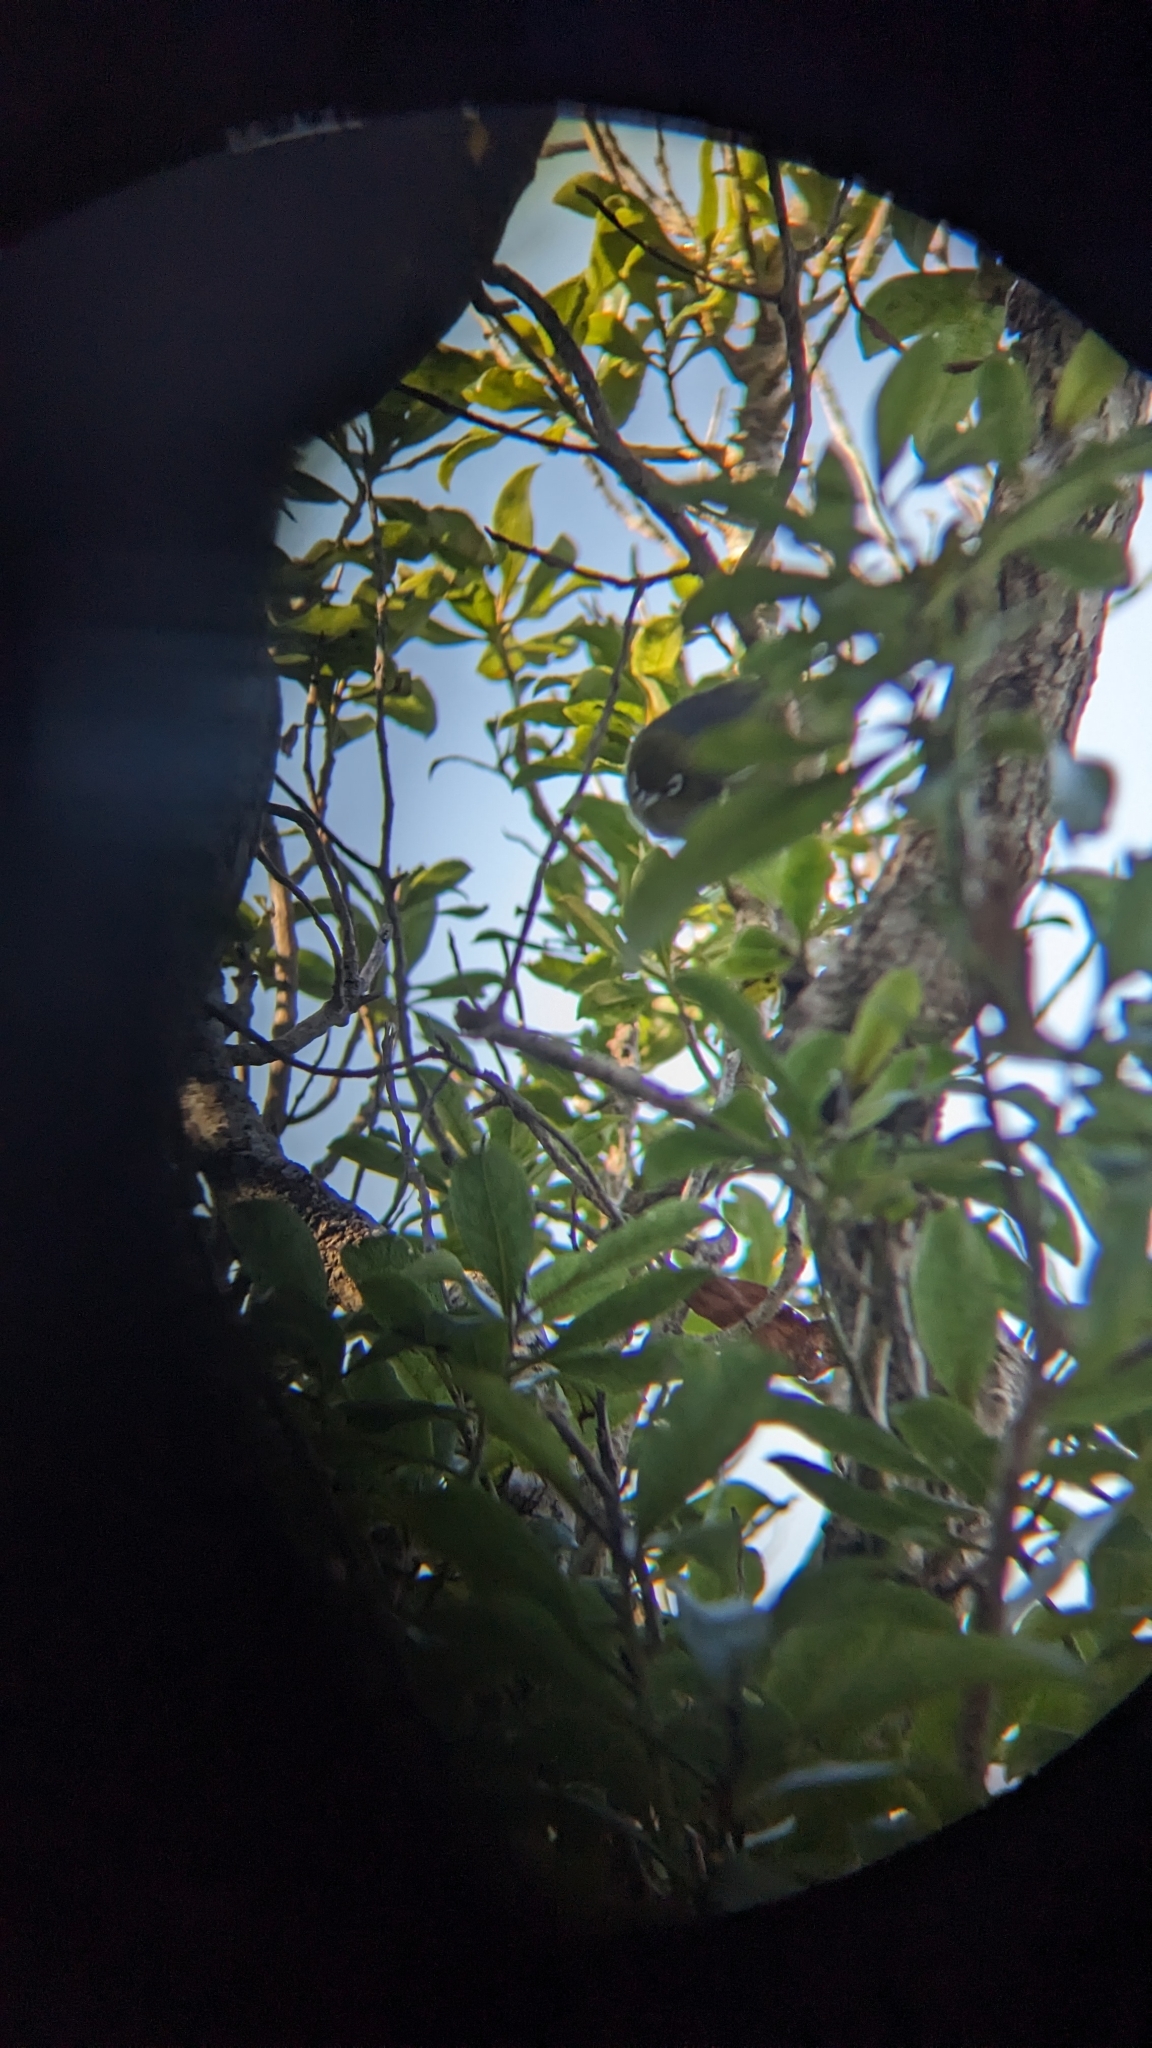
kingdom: Animalia
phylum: Chordata
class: Aves
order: Passeriformes
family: Zosteropidae
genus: Zosterops
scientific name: Zosterops lateralis
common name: Silvereye
